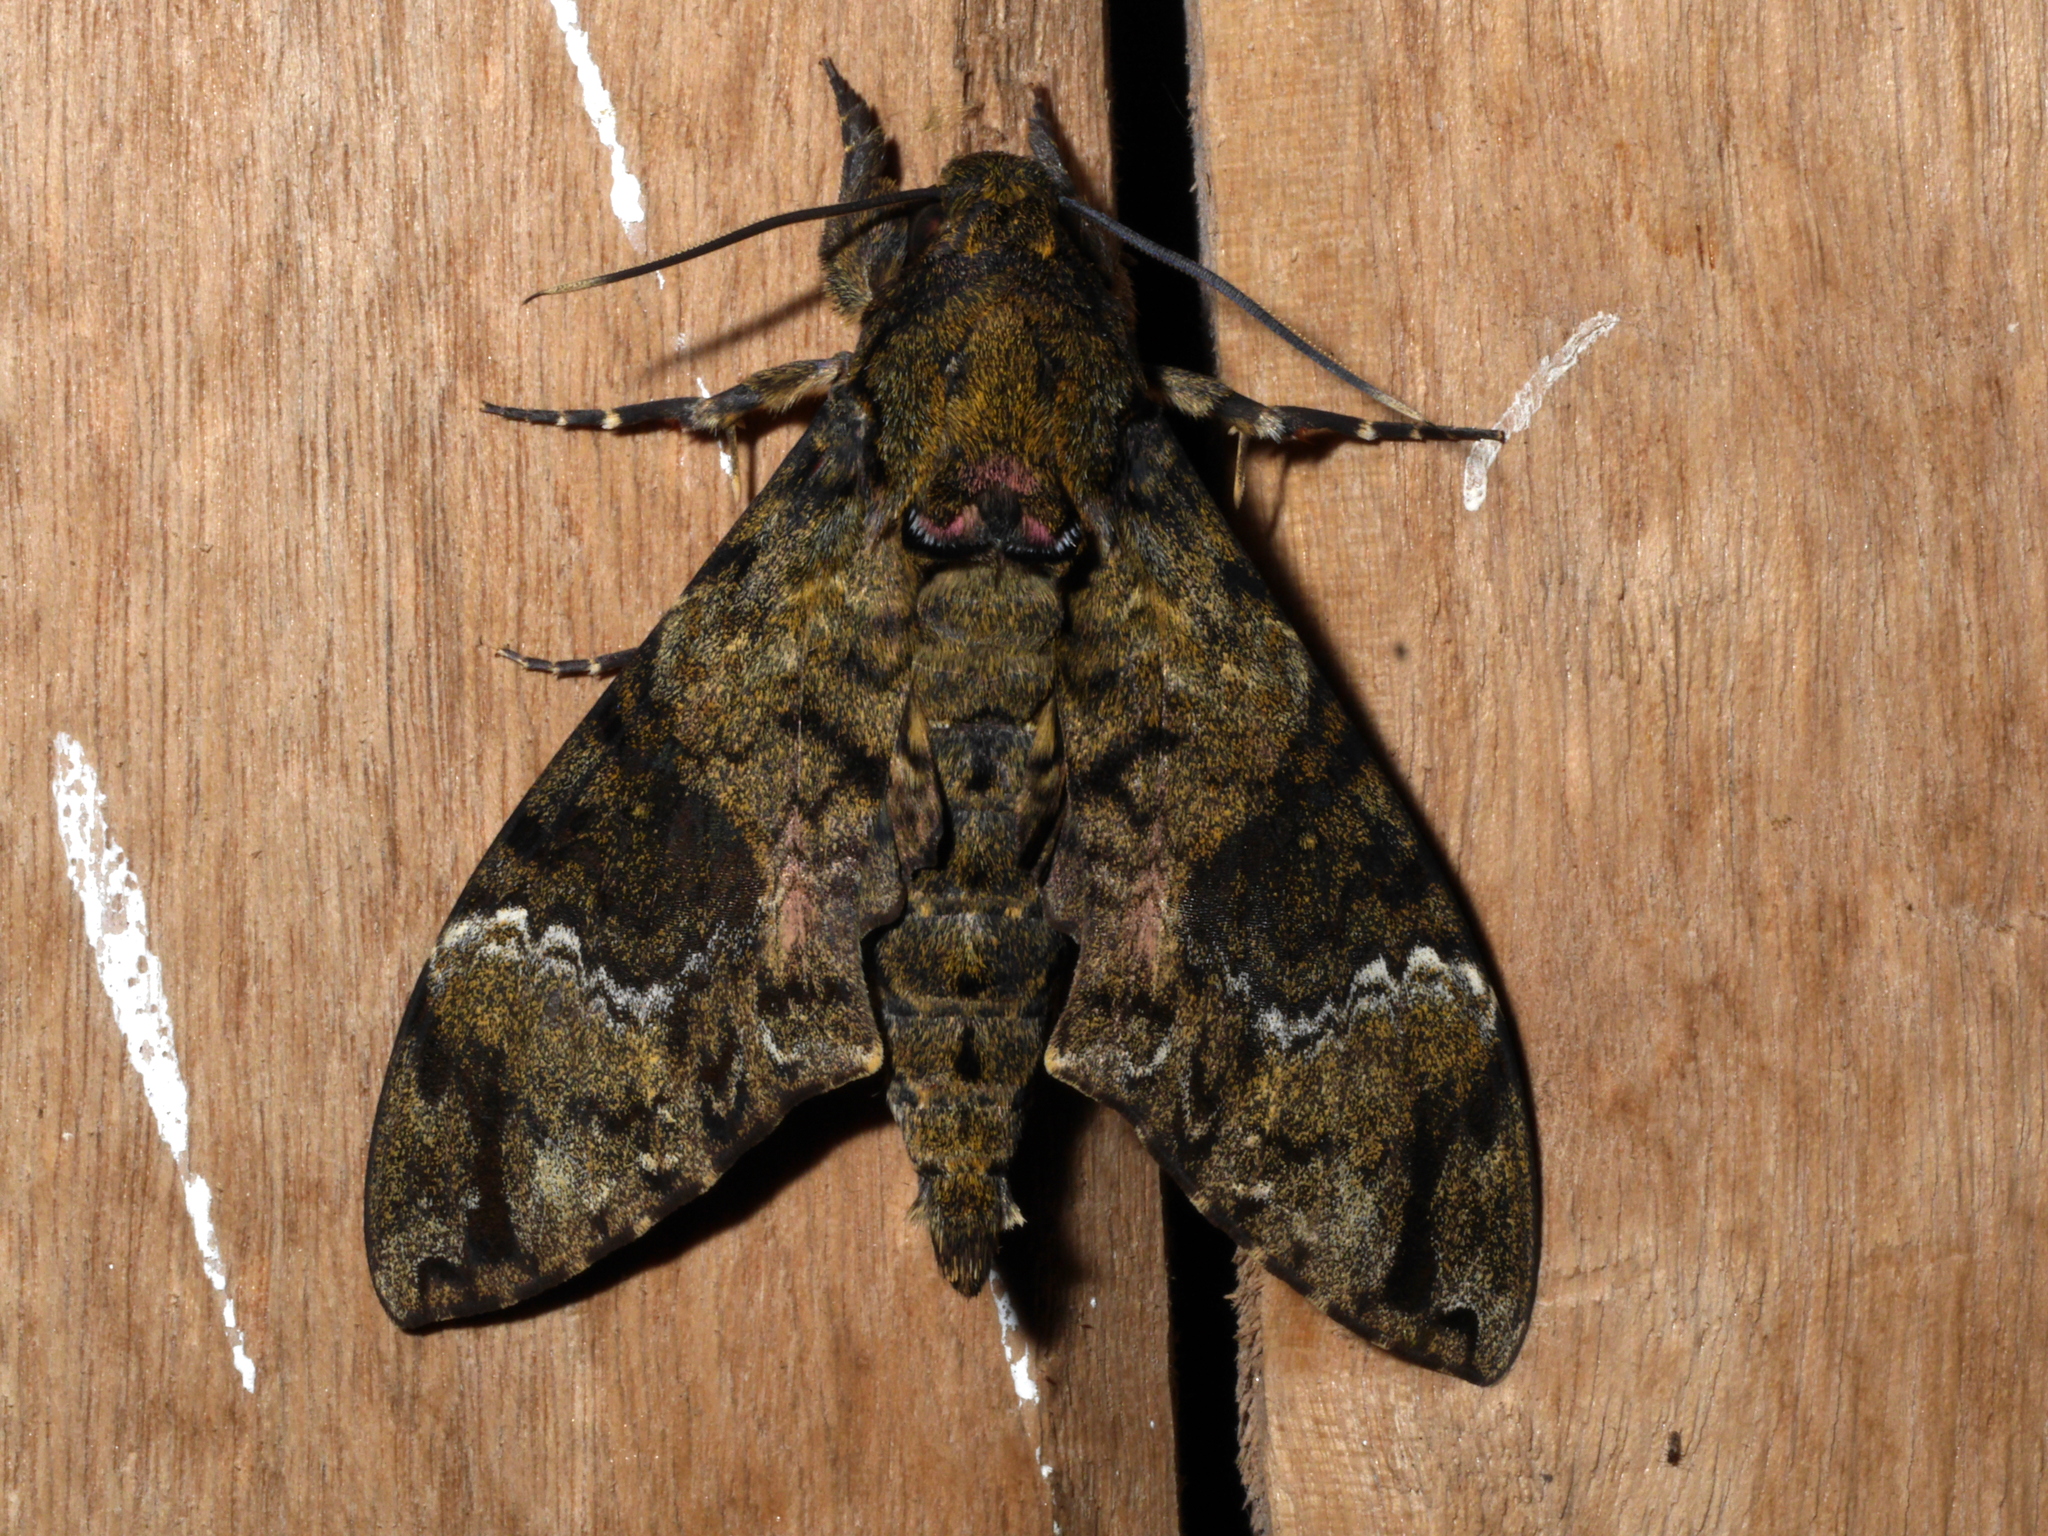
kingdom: Animalia
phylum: Arthropoda
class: Insecta
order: Lepidoptera
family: Sphingidae
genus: Coelonia
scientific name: Coelonia fulvinotata
